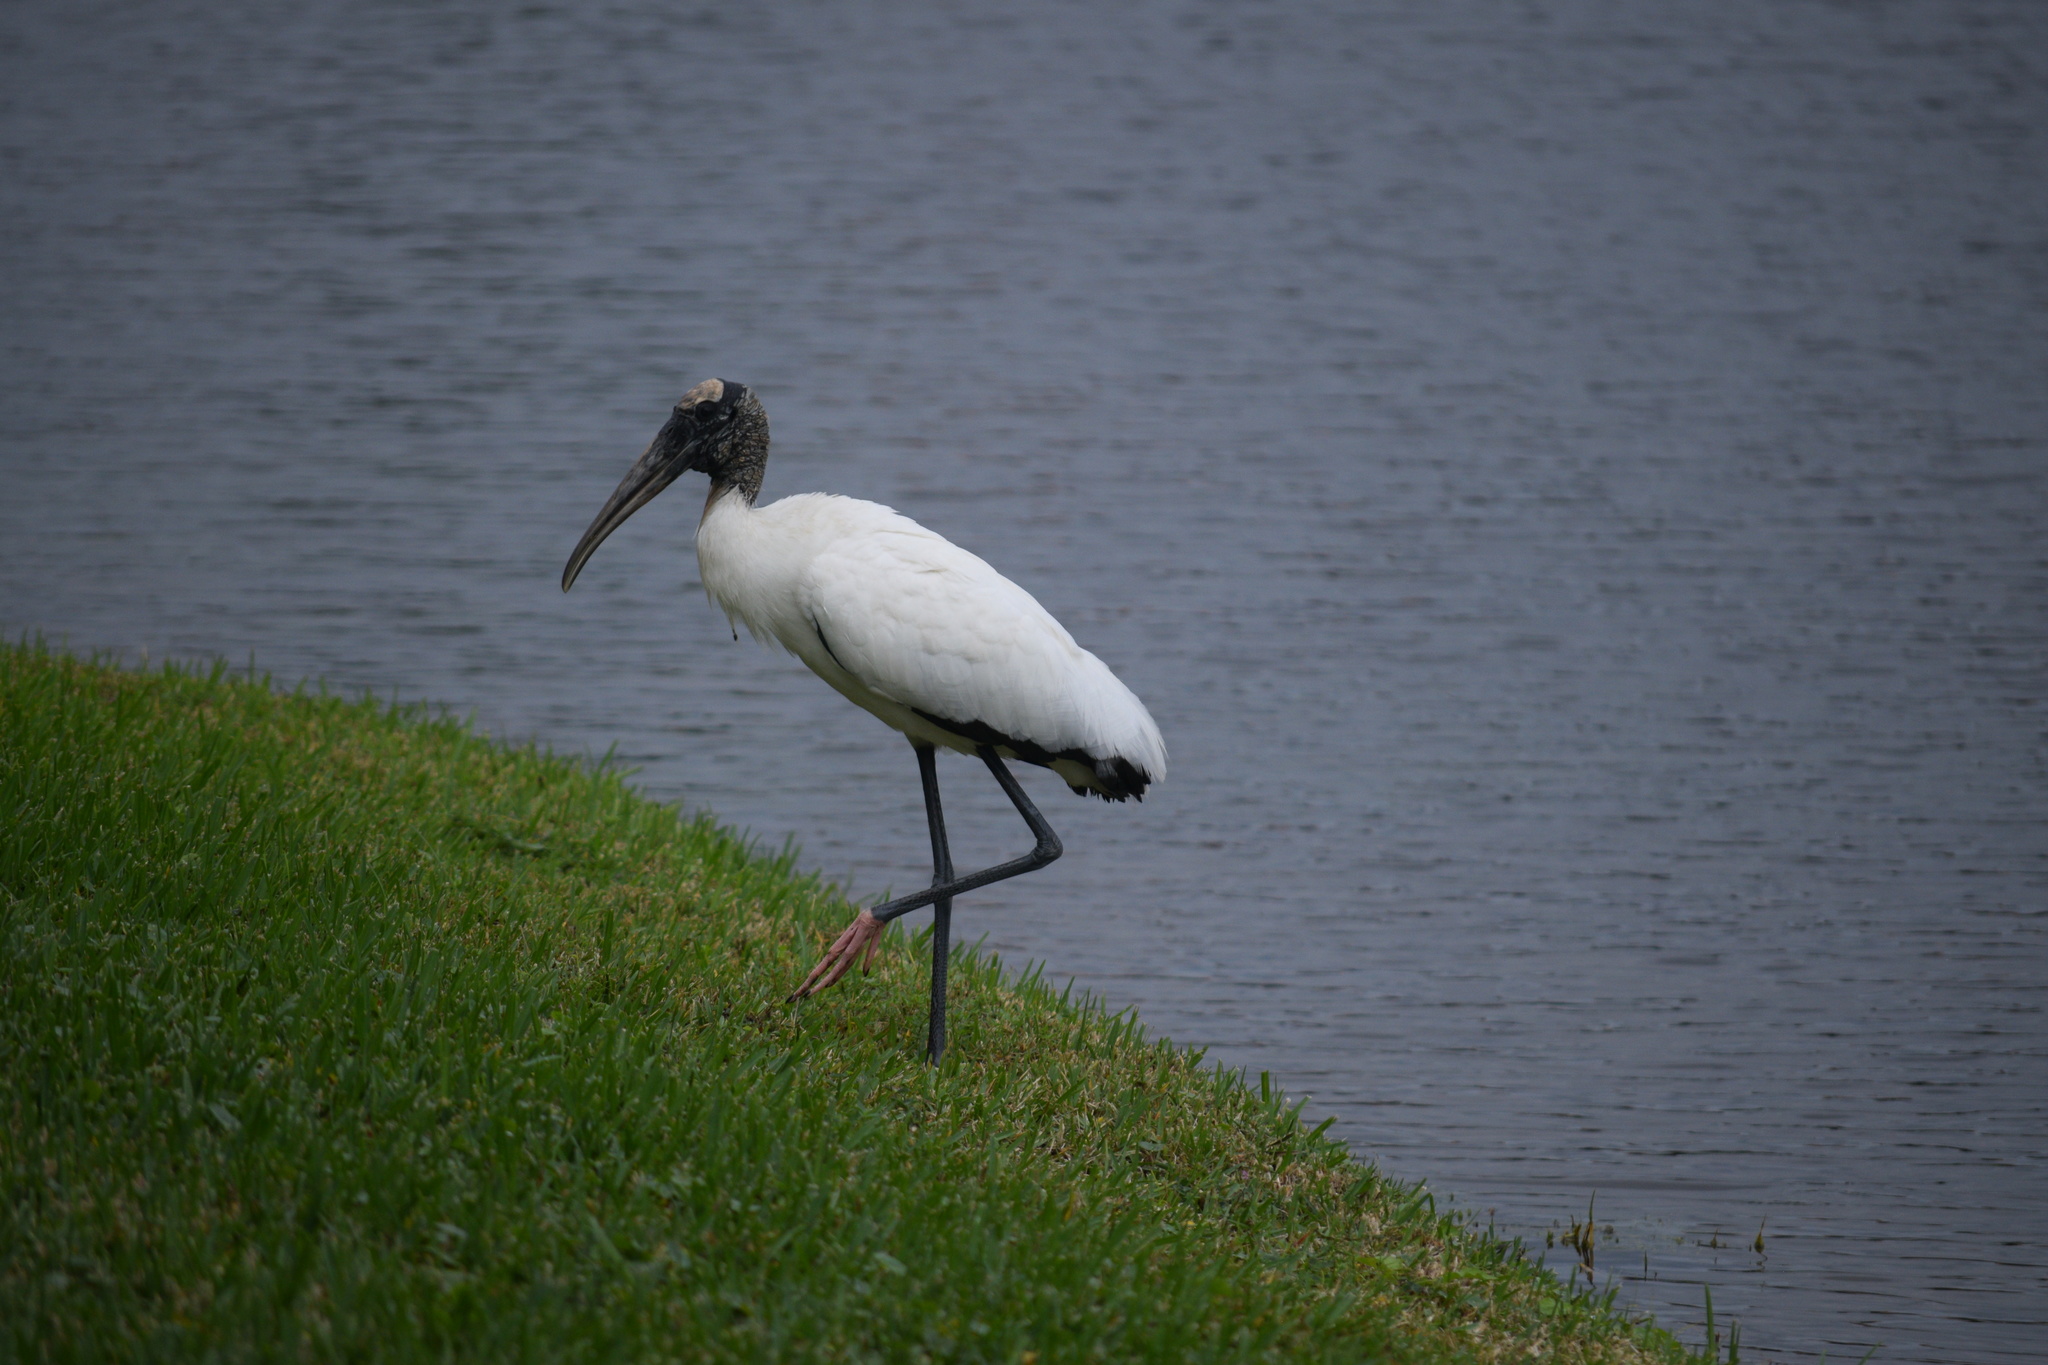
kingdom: Animalia
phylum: Chordata
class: Aves
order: Ciconiiformes
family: Ciconiidae
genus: Mycteria
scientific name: Mycteria americana
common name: Wood stork
